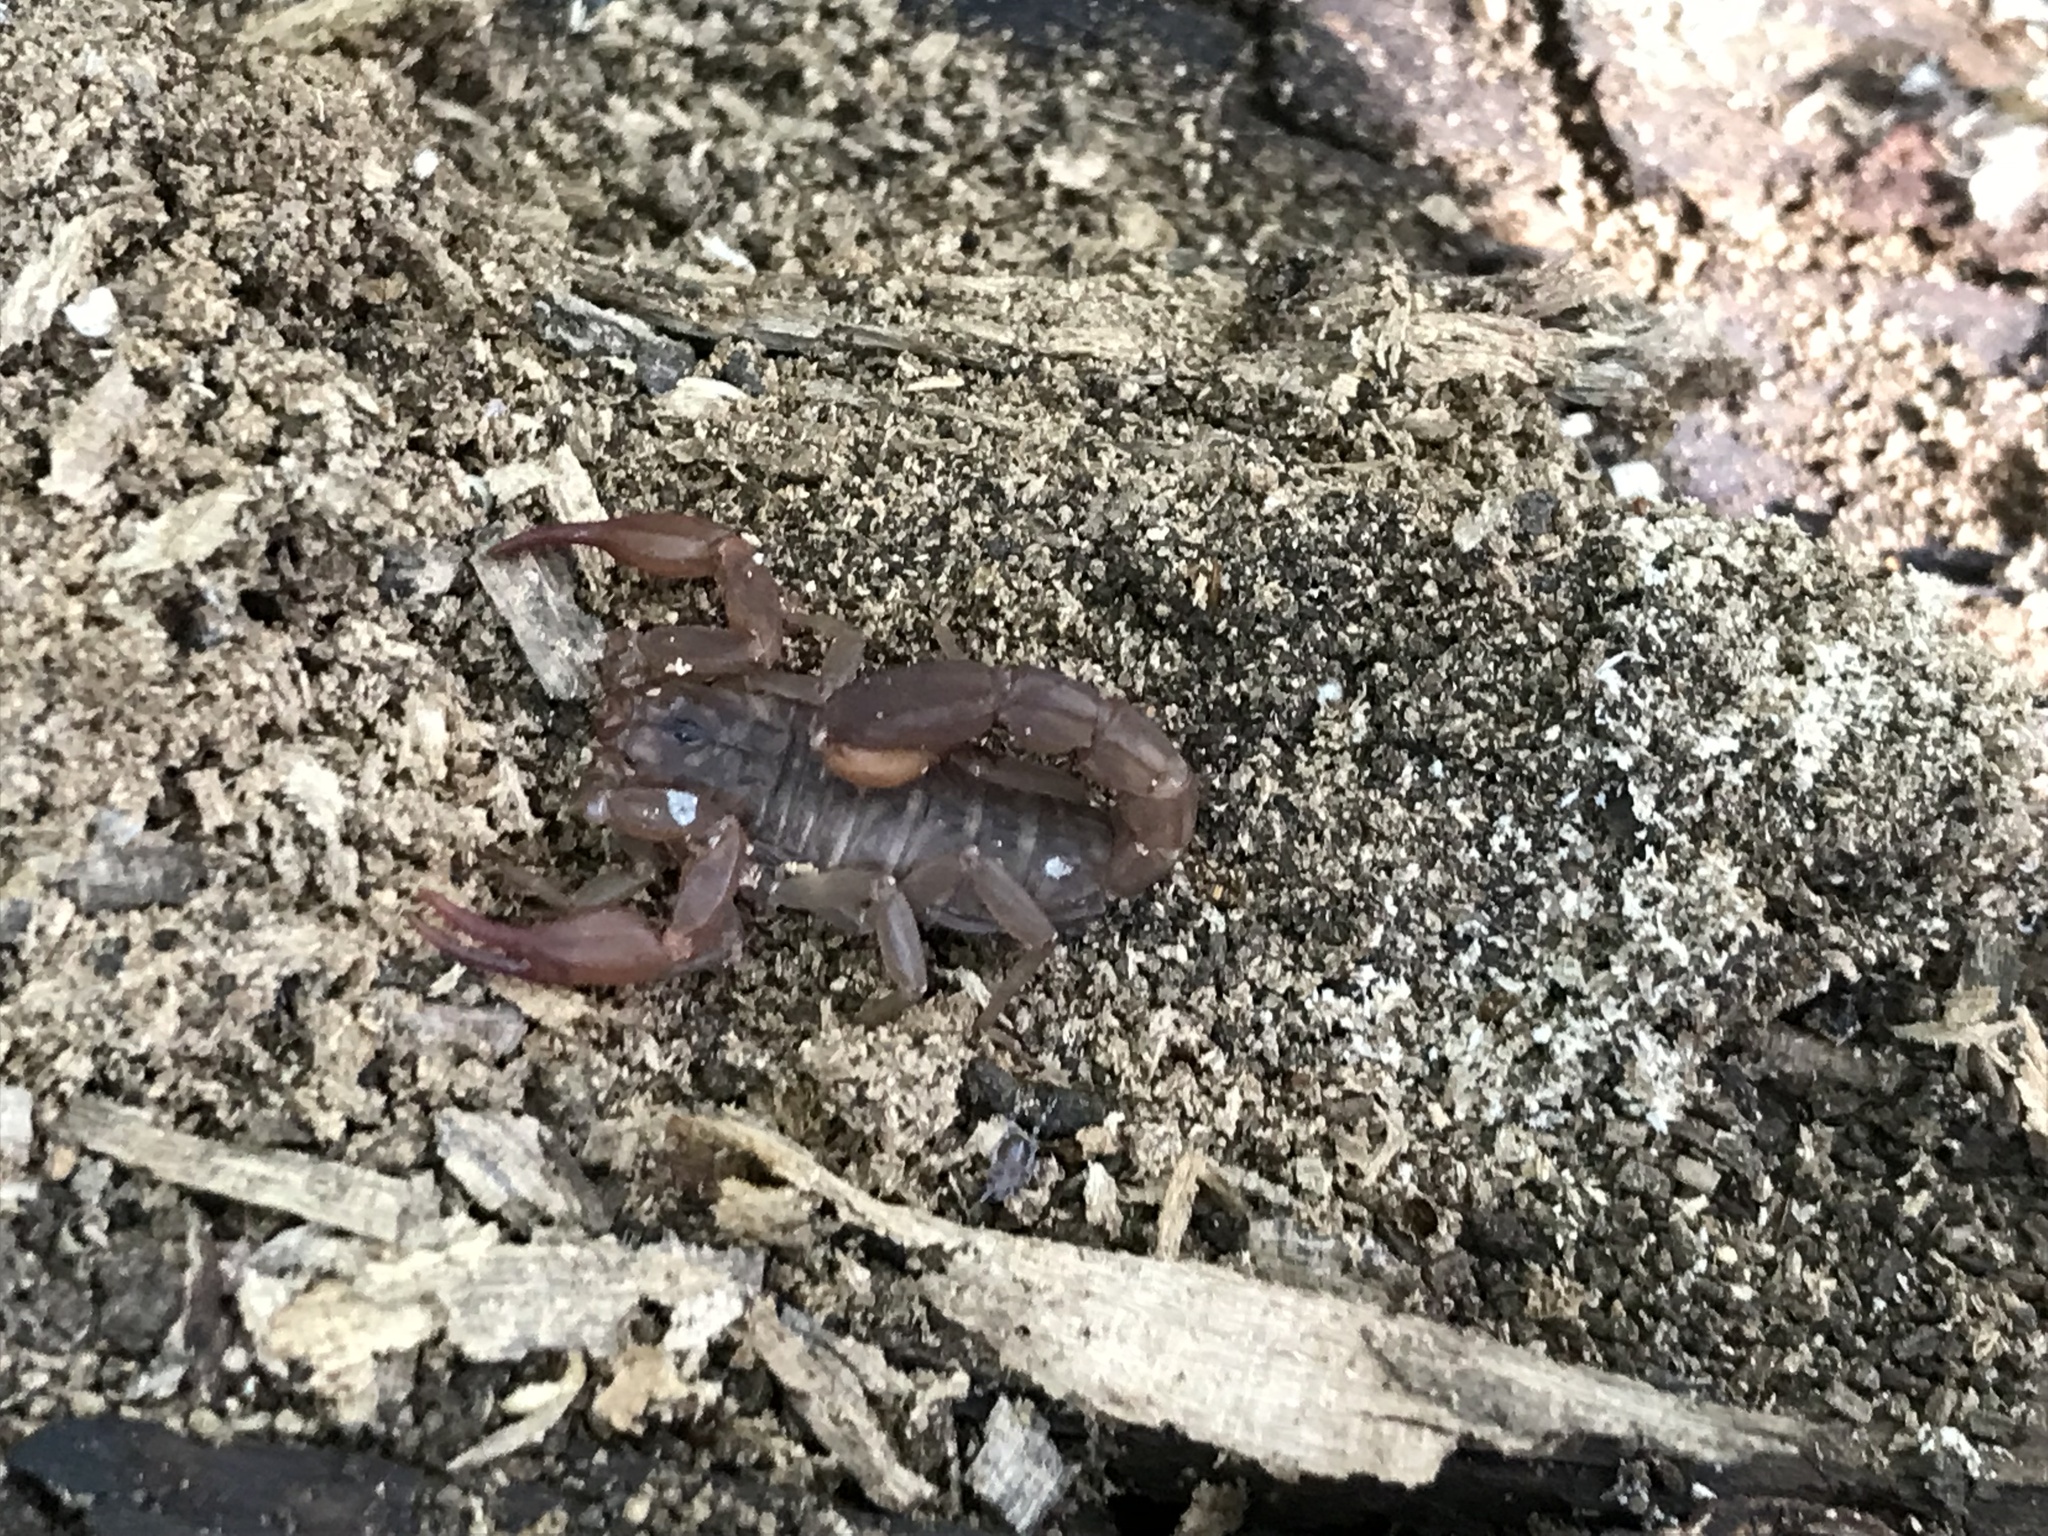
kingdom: Animalia
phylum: Arthropoda
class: Arachnida
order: Scorpiones
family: Vaejovidae
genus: Pseudouroctonus
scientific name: Pseudouroctonus reddelli
